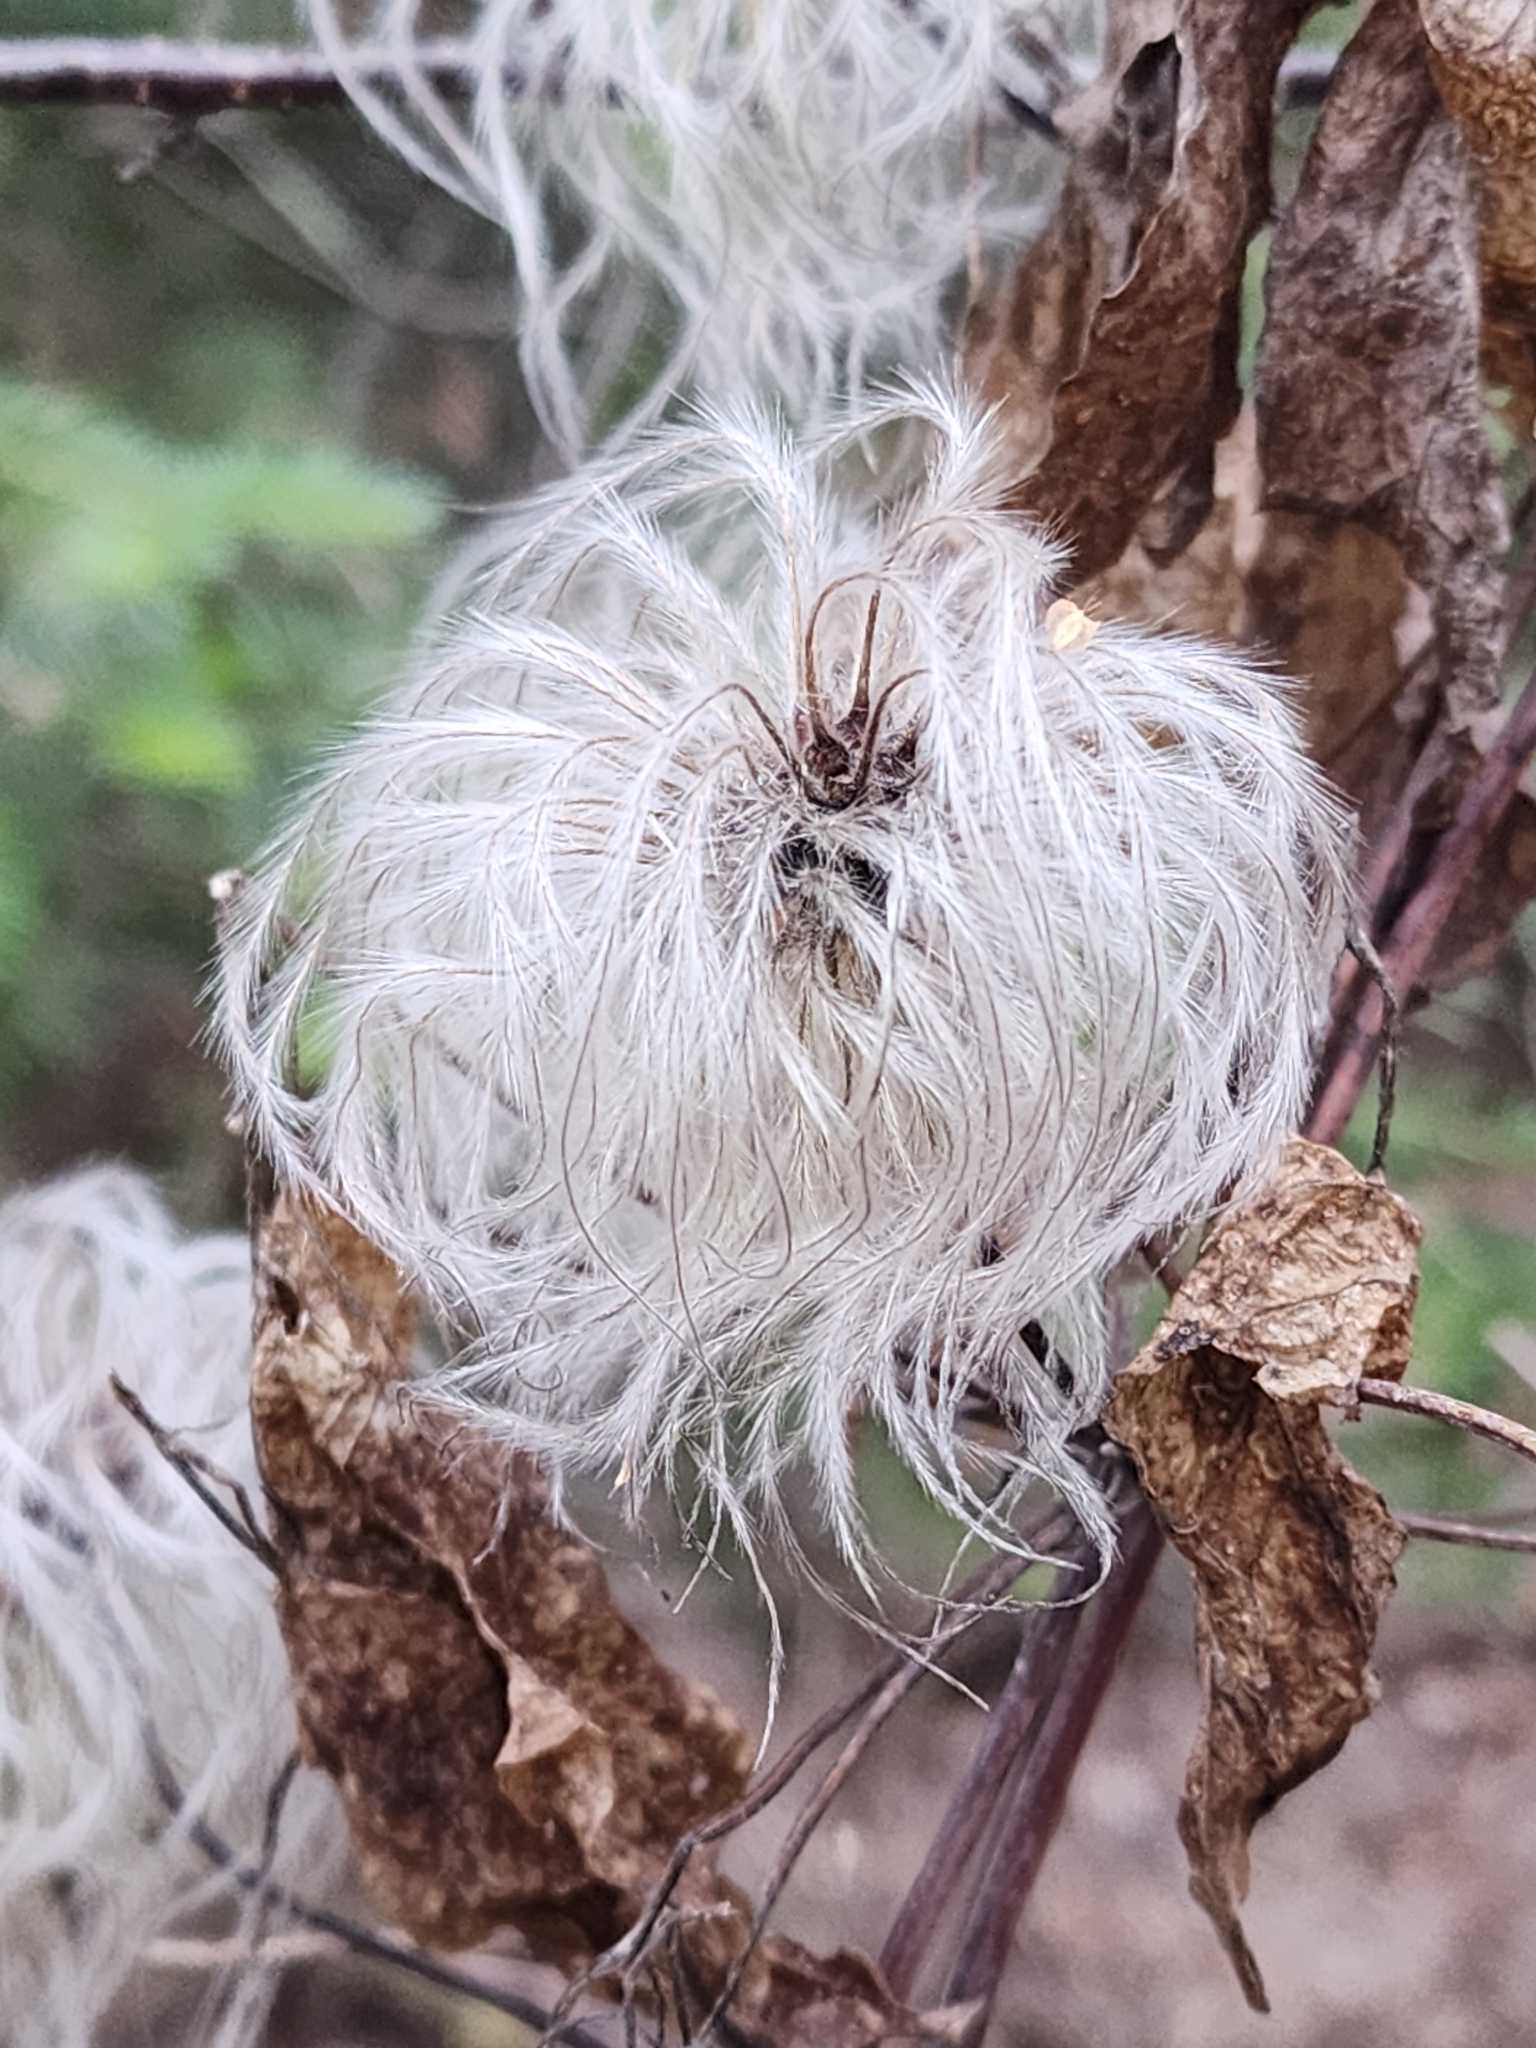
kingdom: Plantae
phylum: Tracheophyta
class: Magnoliopsida
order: Ranunculales
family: Ranunculaceae
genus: Clematis
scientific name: Clematis occidentalis
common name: Purple clematis
